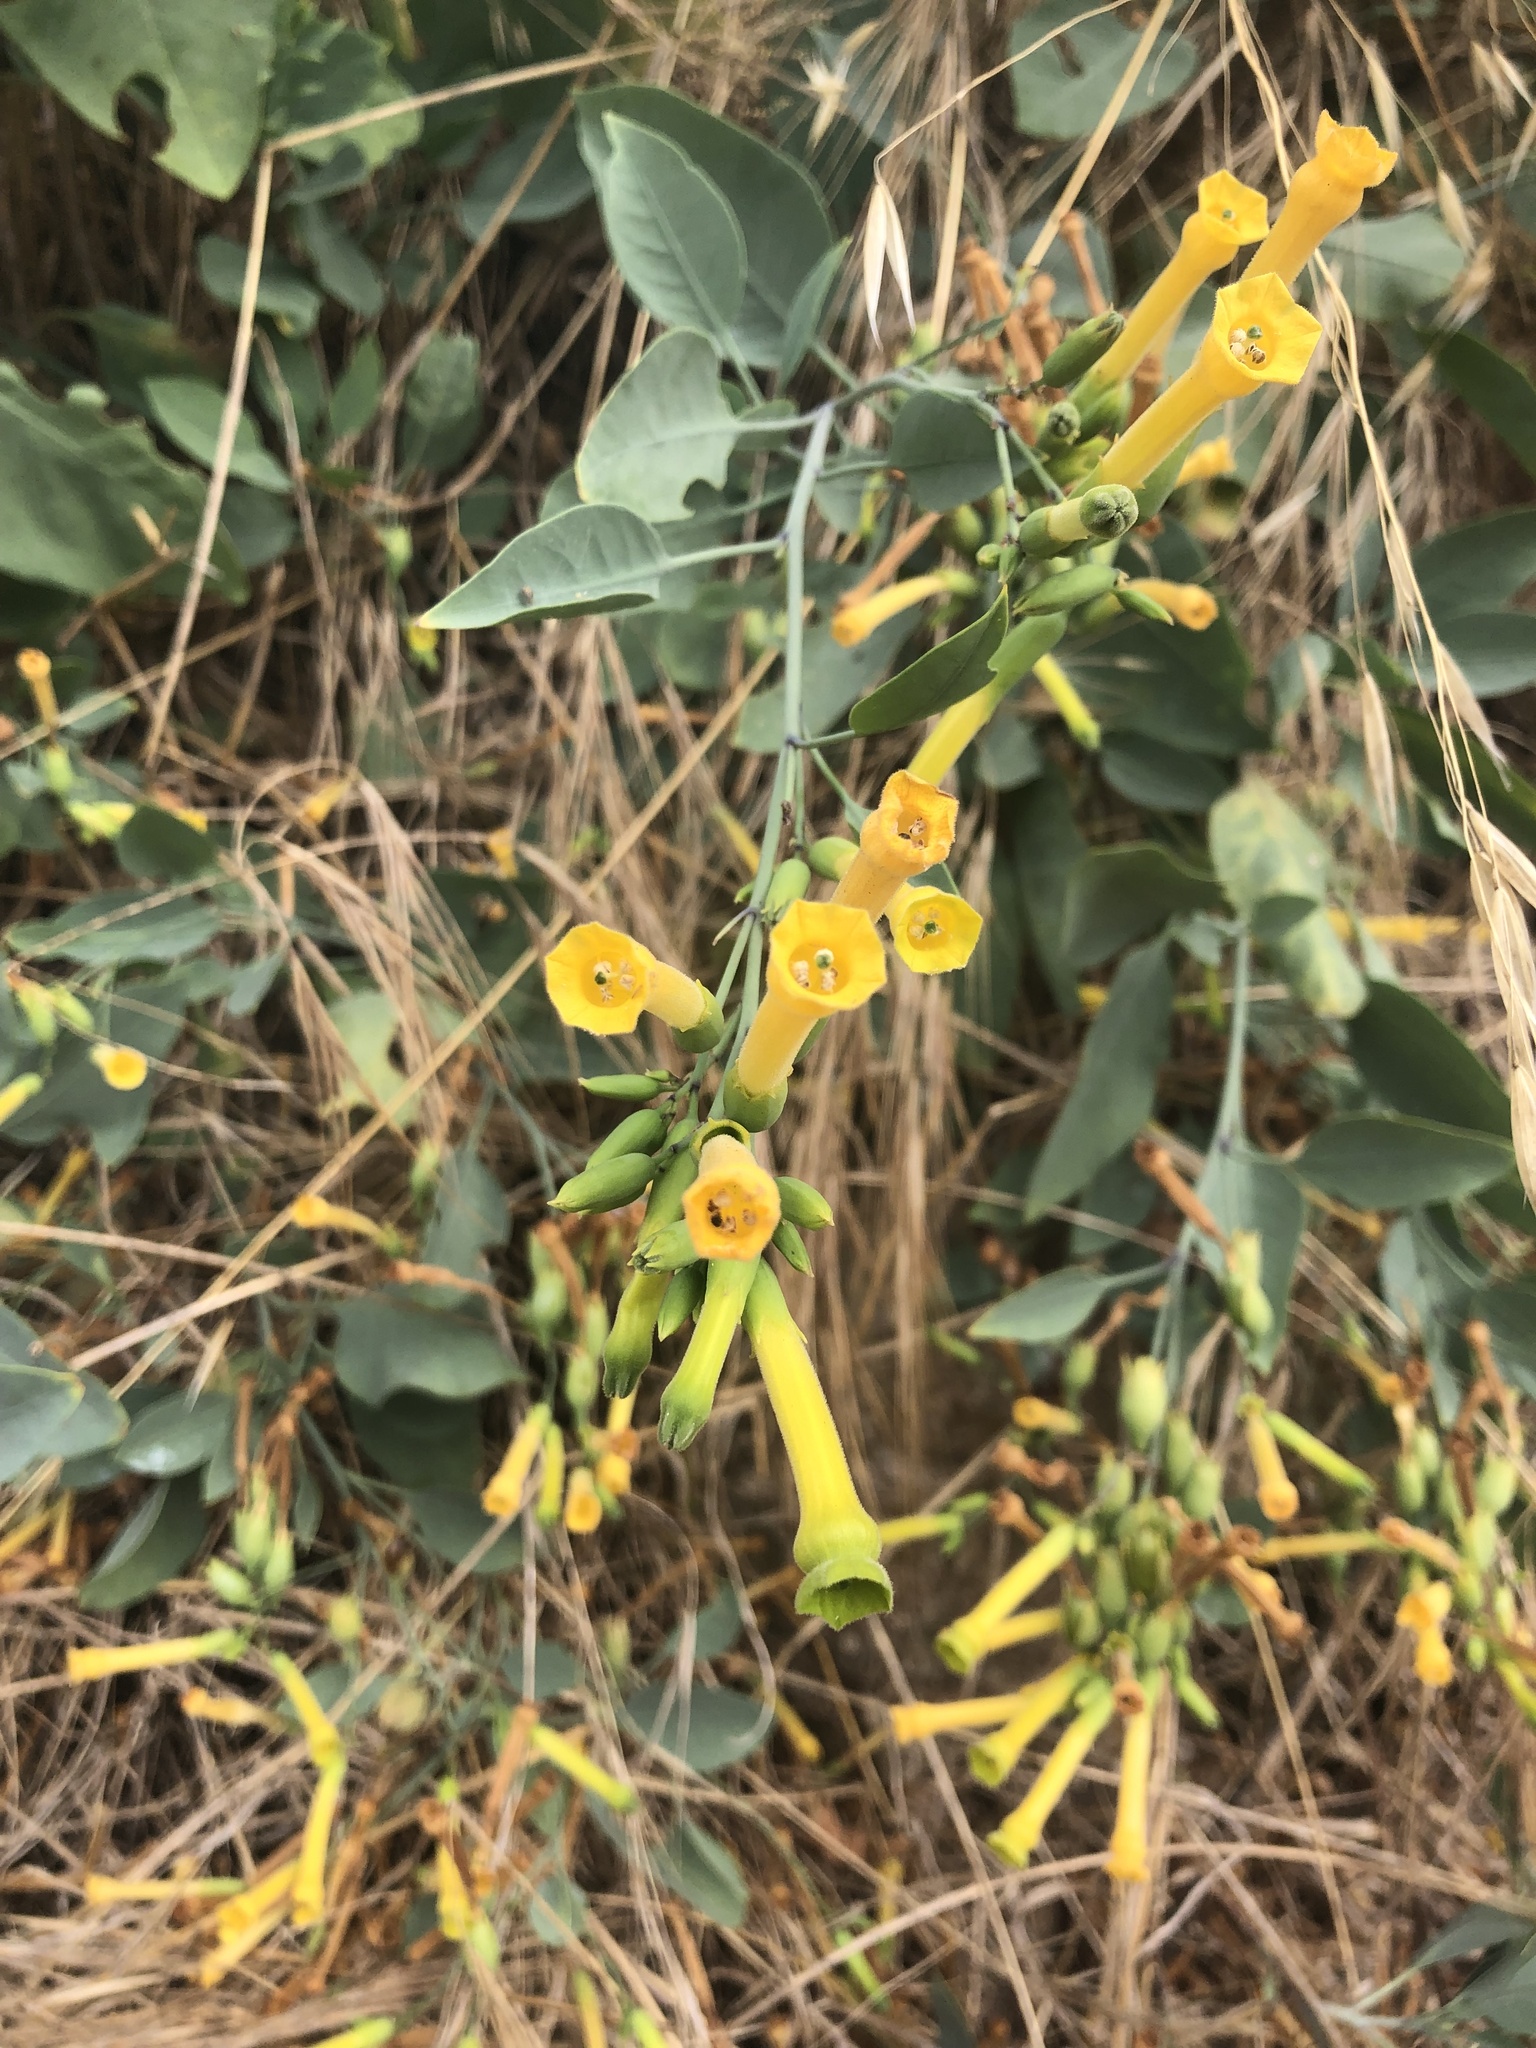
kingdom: Plantae
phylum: Tracheophyta
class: Magnoliopsida
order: Solanales
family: Solanaceae
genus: Nicotiana
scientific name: Nicotiana glauca
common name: Tree tobacco
